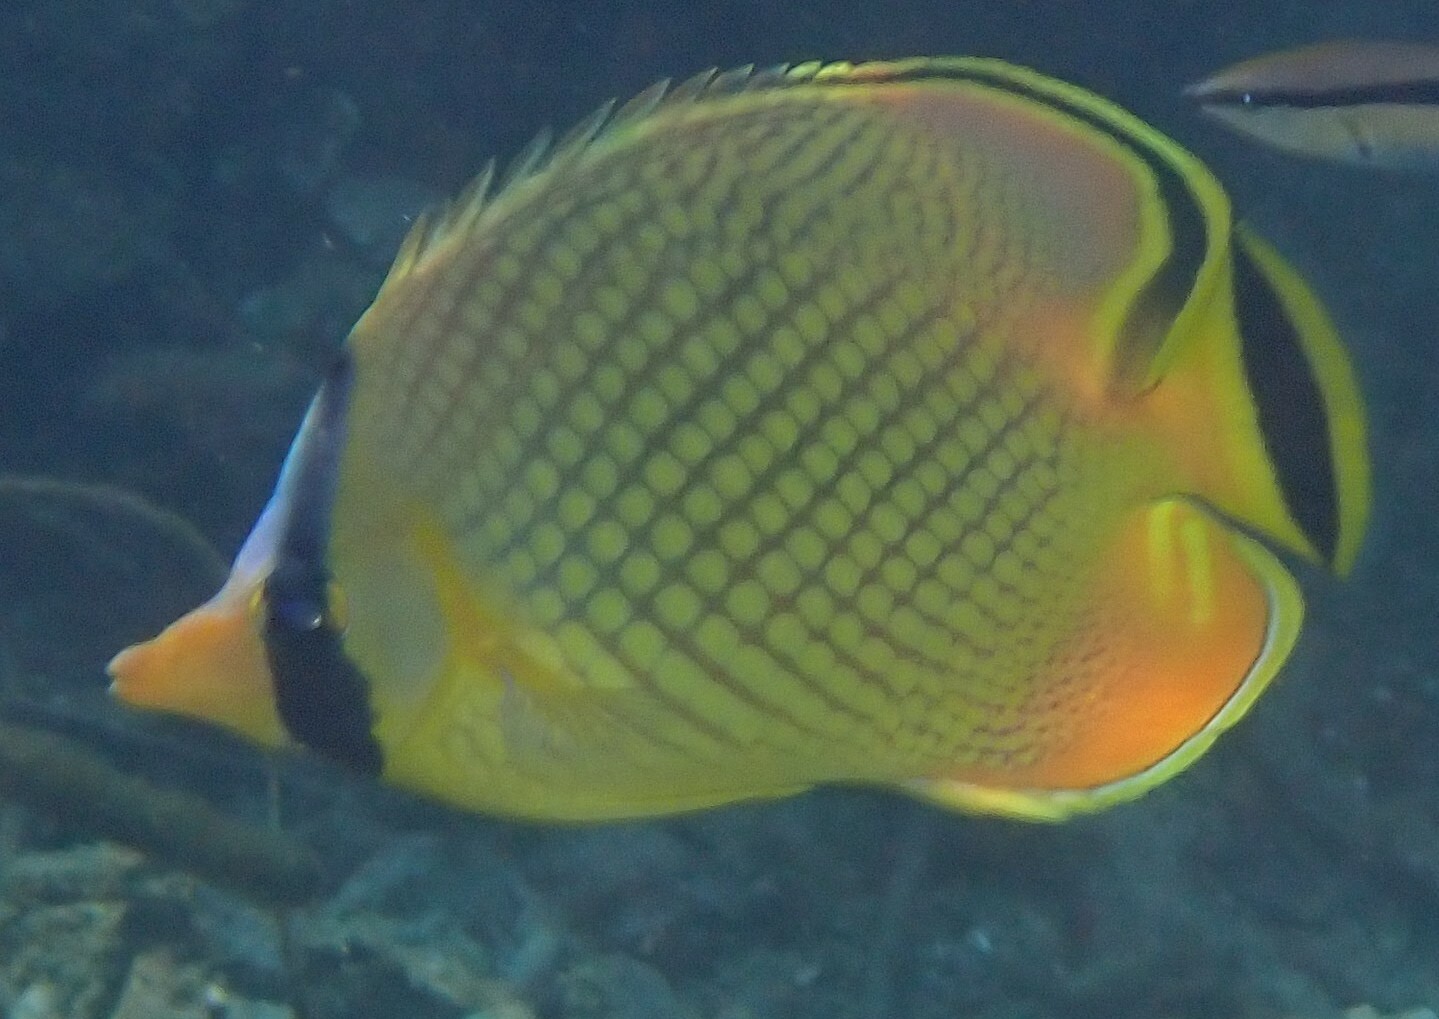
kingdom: Animalia
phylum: Chordata
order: Perciformes
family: Chaetodontidae
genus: Chaetodon
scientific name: Chaetodon rafflesii
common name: Latticed butterflyfish
